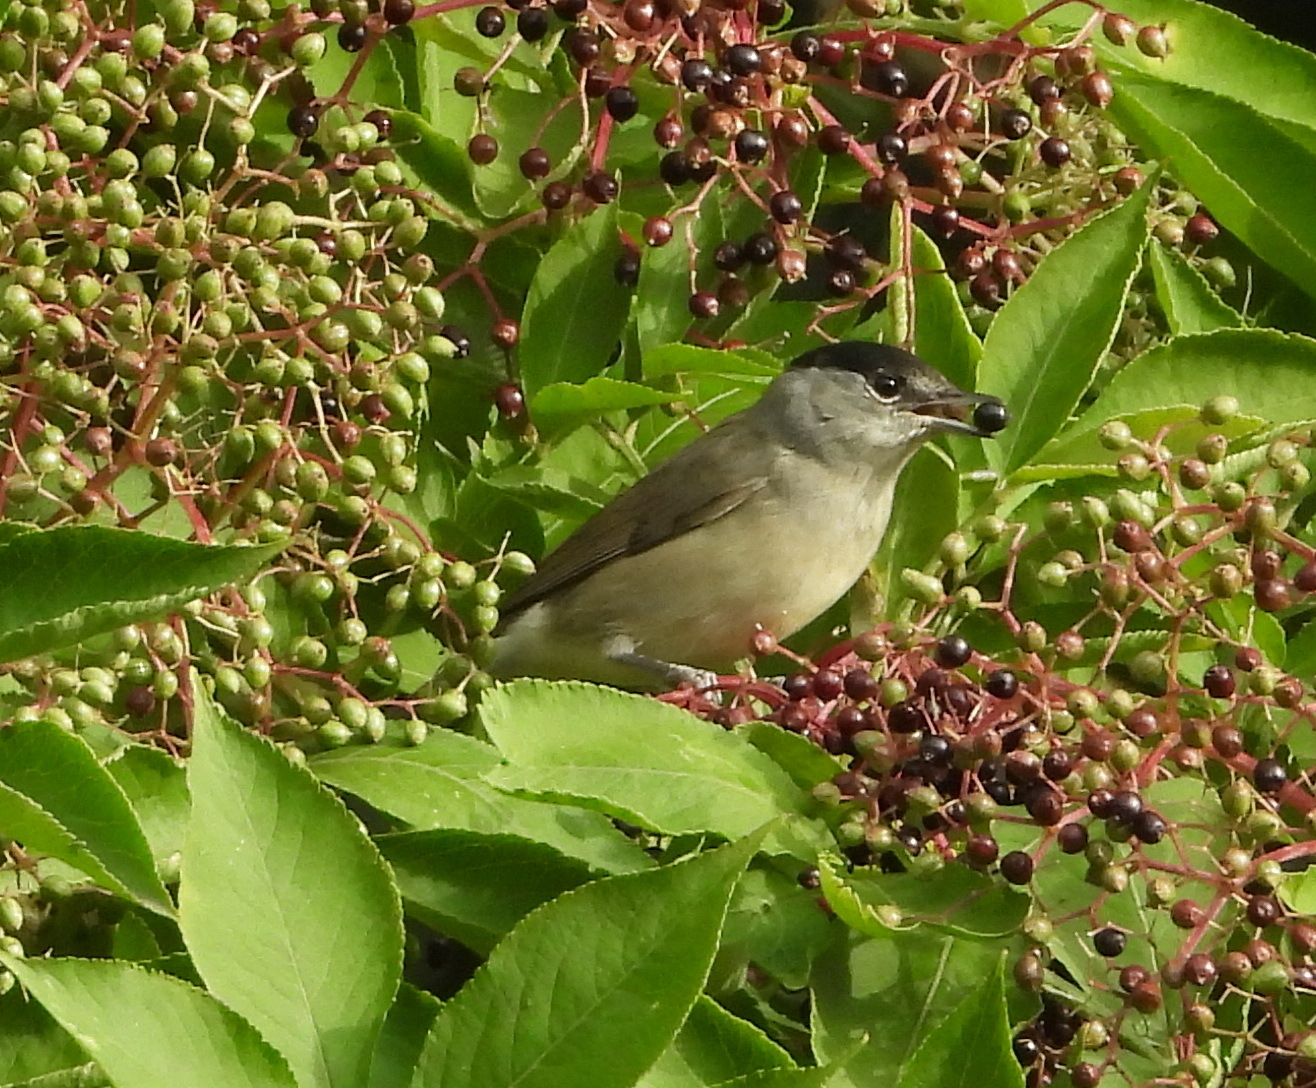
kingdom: Animalia
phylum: Chordata
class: Aves
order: Passeriformes
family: Sylviidae
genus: Sylvia
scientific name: Sylvia atricapilla
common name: Eurasian blackcap
